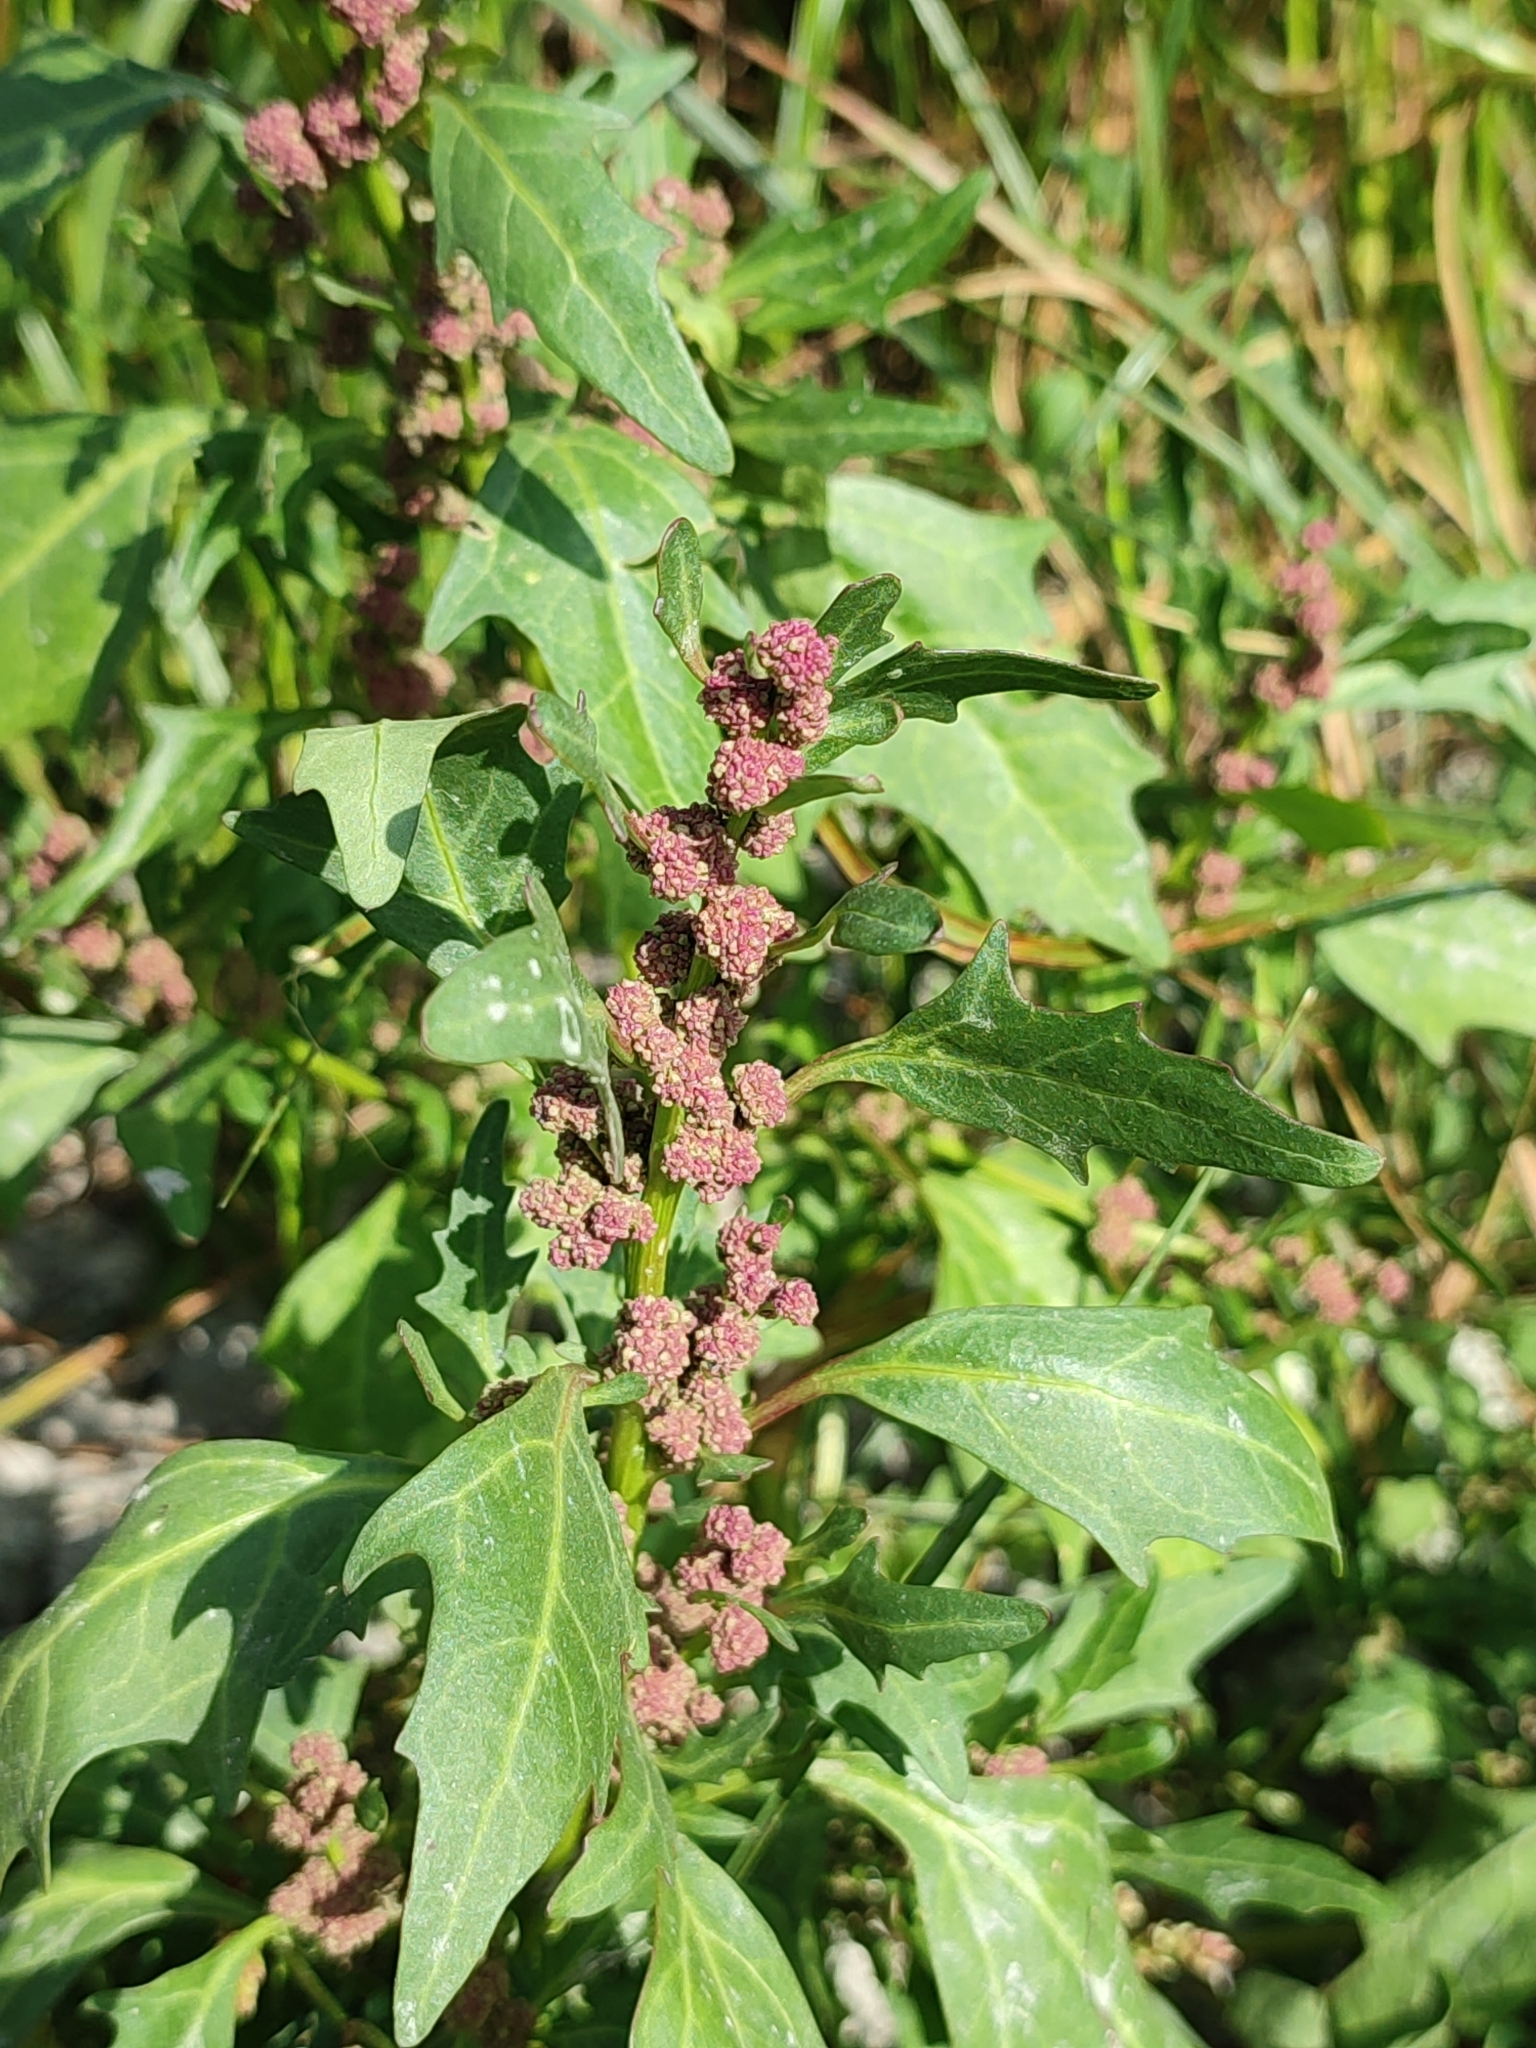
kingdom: Plantae
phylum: Tracheophyta
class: Magnoliopsida
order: Caryophyllales
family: Amaranthaceae
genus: Oxybasis
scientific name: Oxybasis rubra
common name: Red goosefoot
